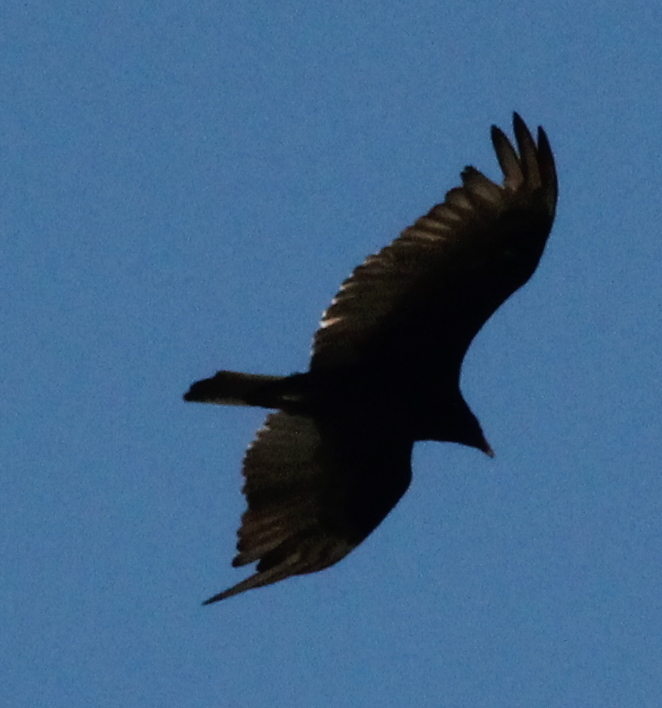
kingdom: Animalia
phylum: Chordata
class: Aves
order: Accipitriformes
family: Cathartidae
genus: Cathartes
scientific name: Cathartes aura
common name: Turkey vulture
